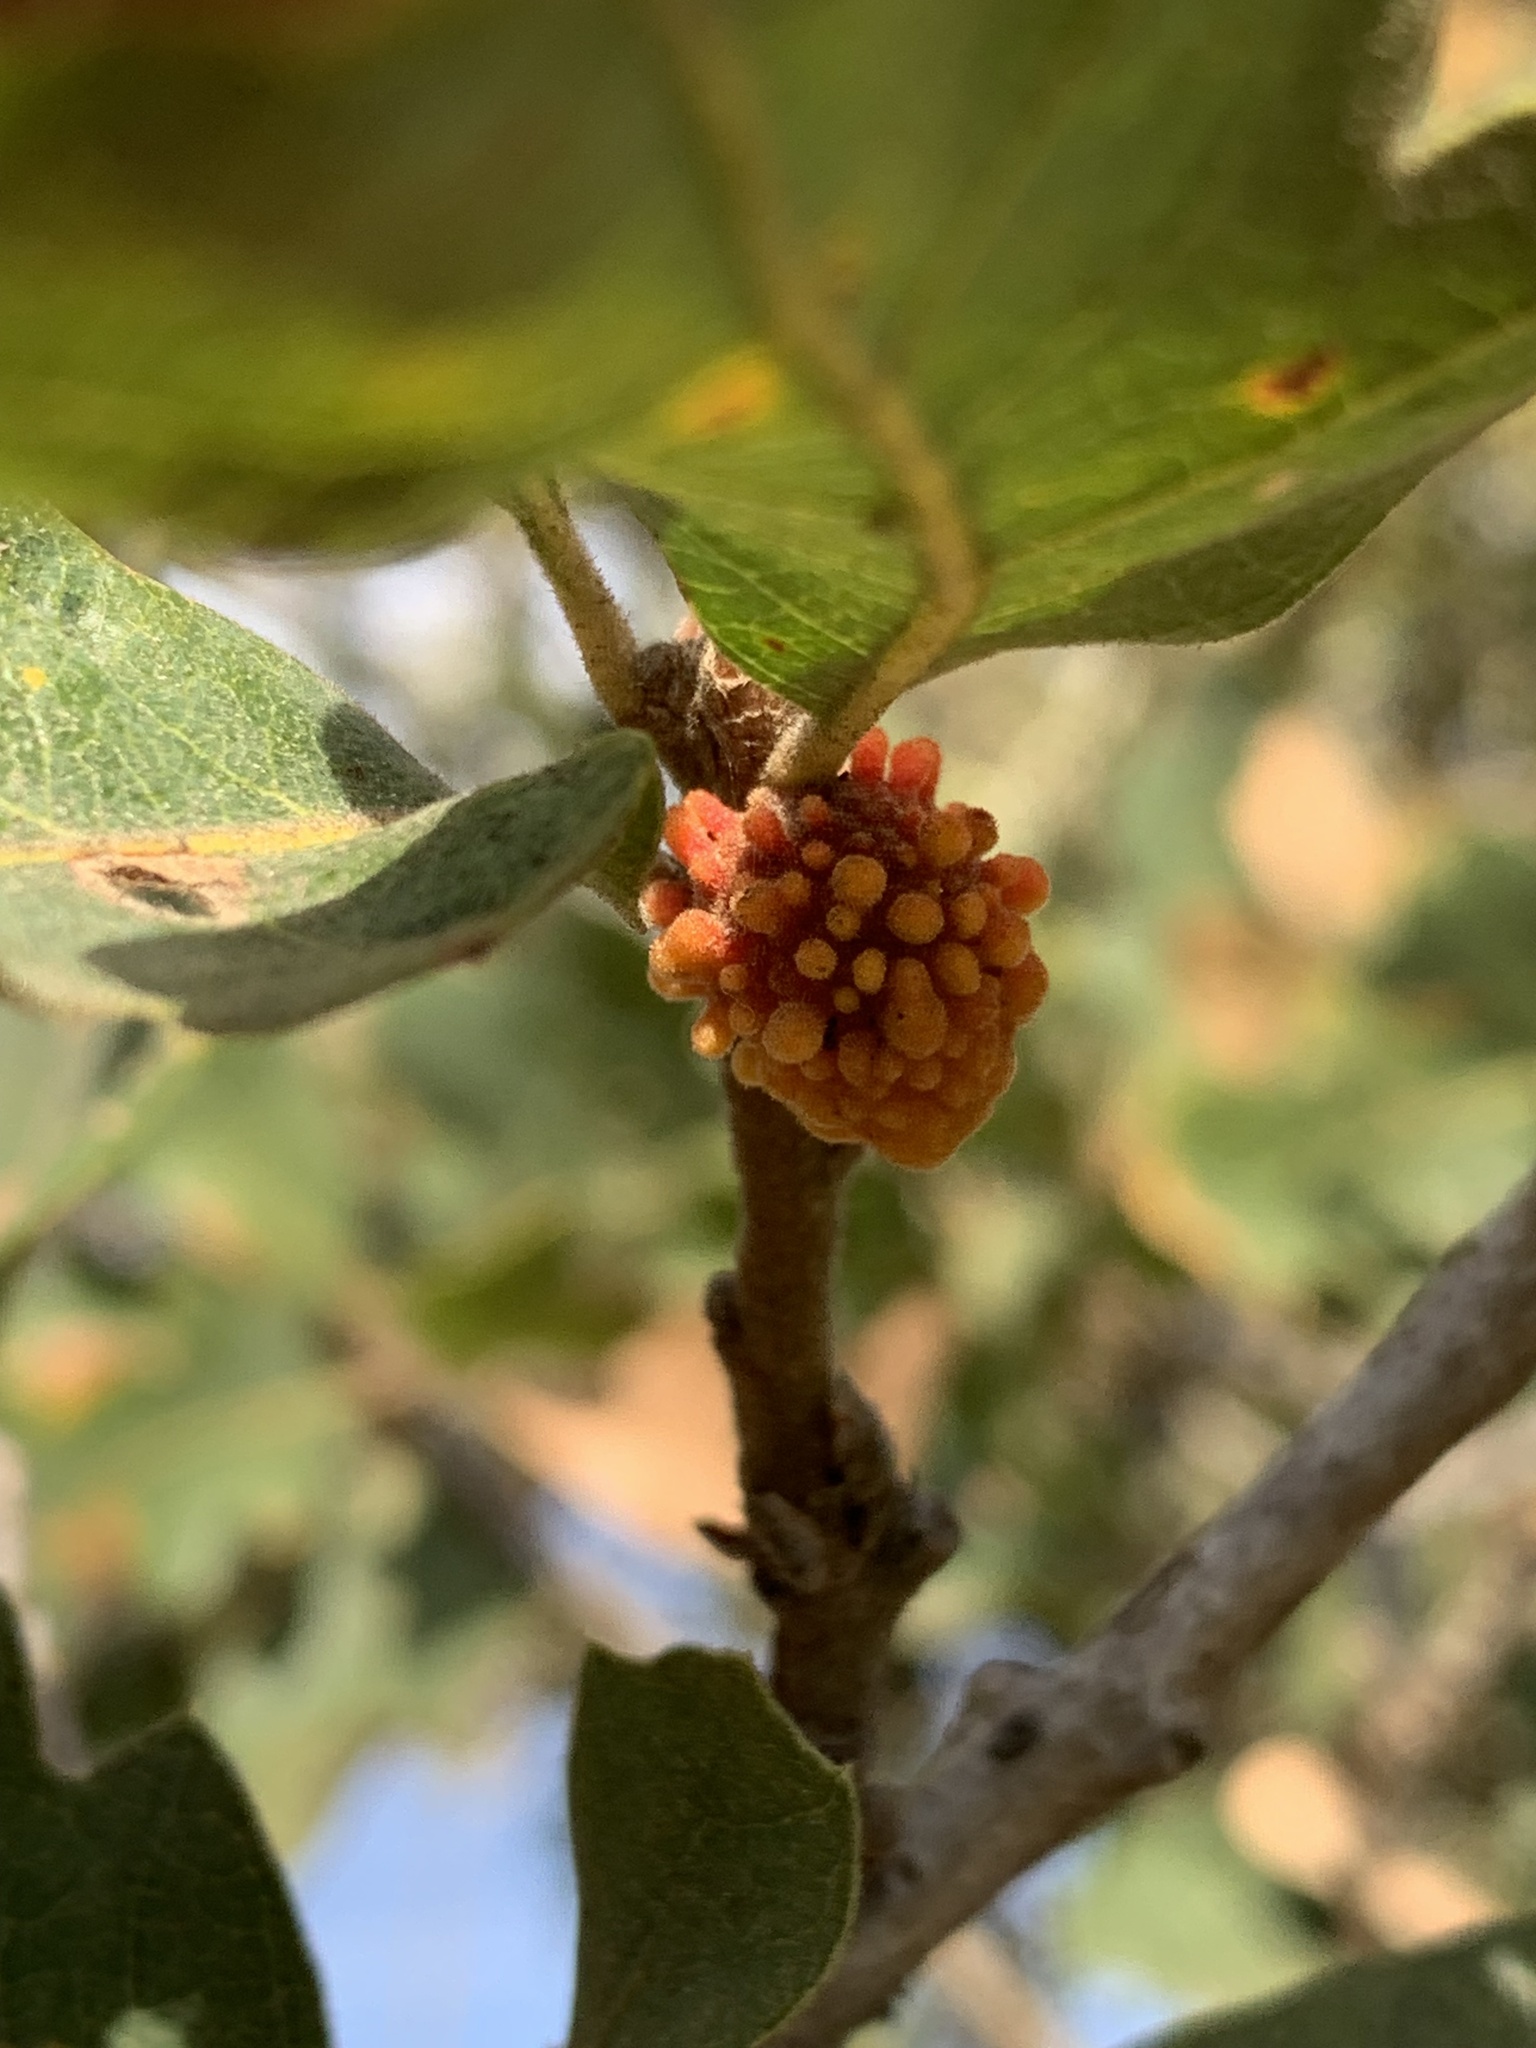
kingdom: Animalia
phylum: Arthropoda
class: Insecta
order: Hymenoptera
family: Cynipidae
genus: Burnettweldia
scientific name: Burnettweldia
